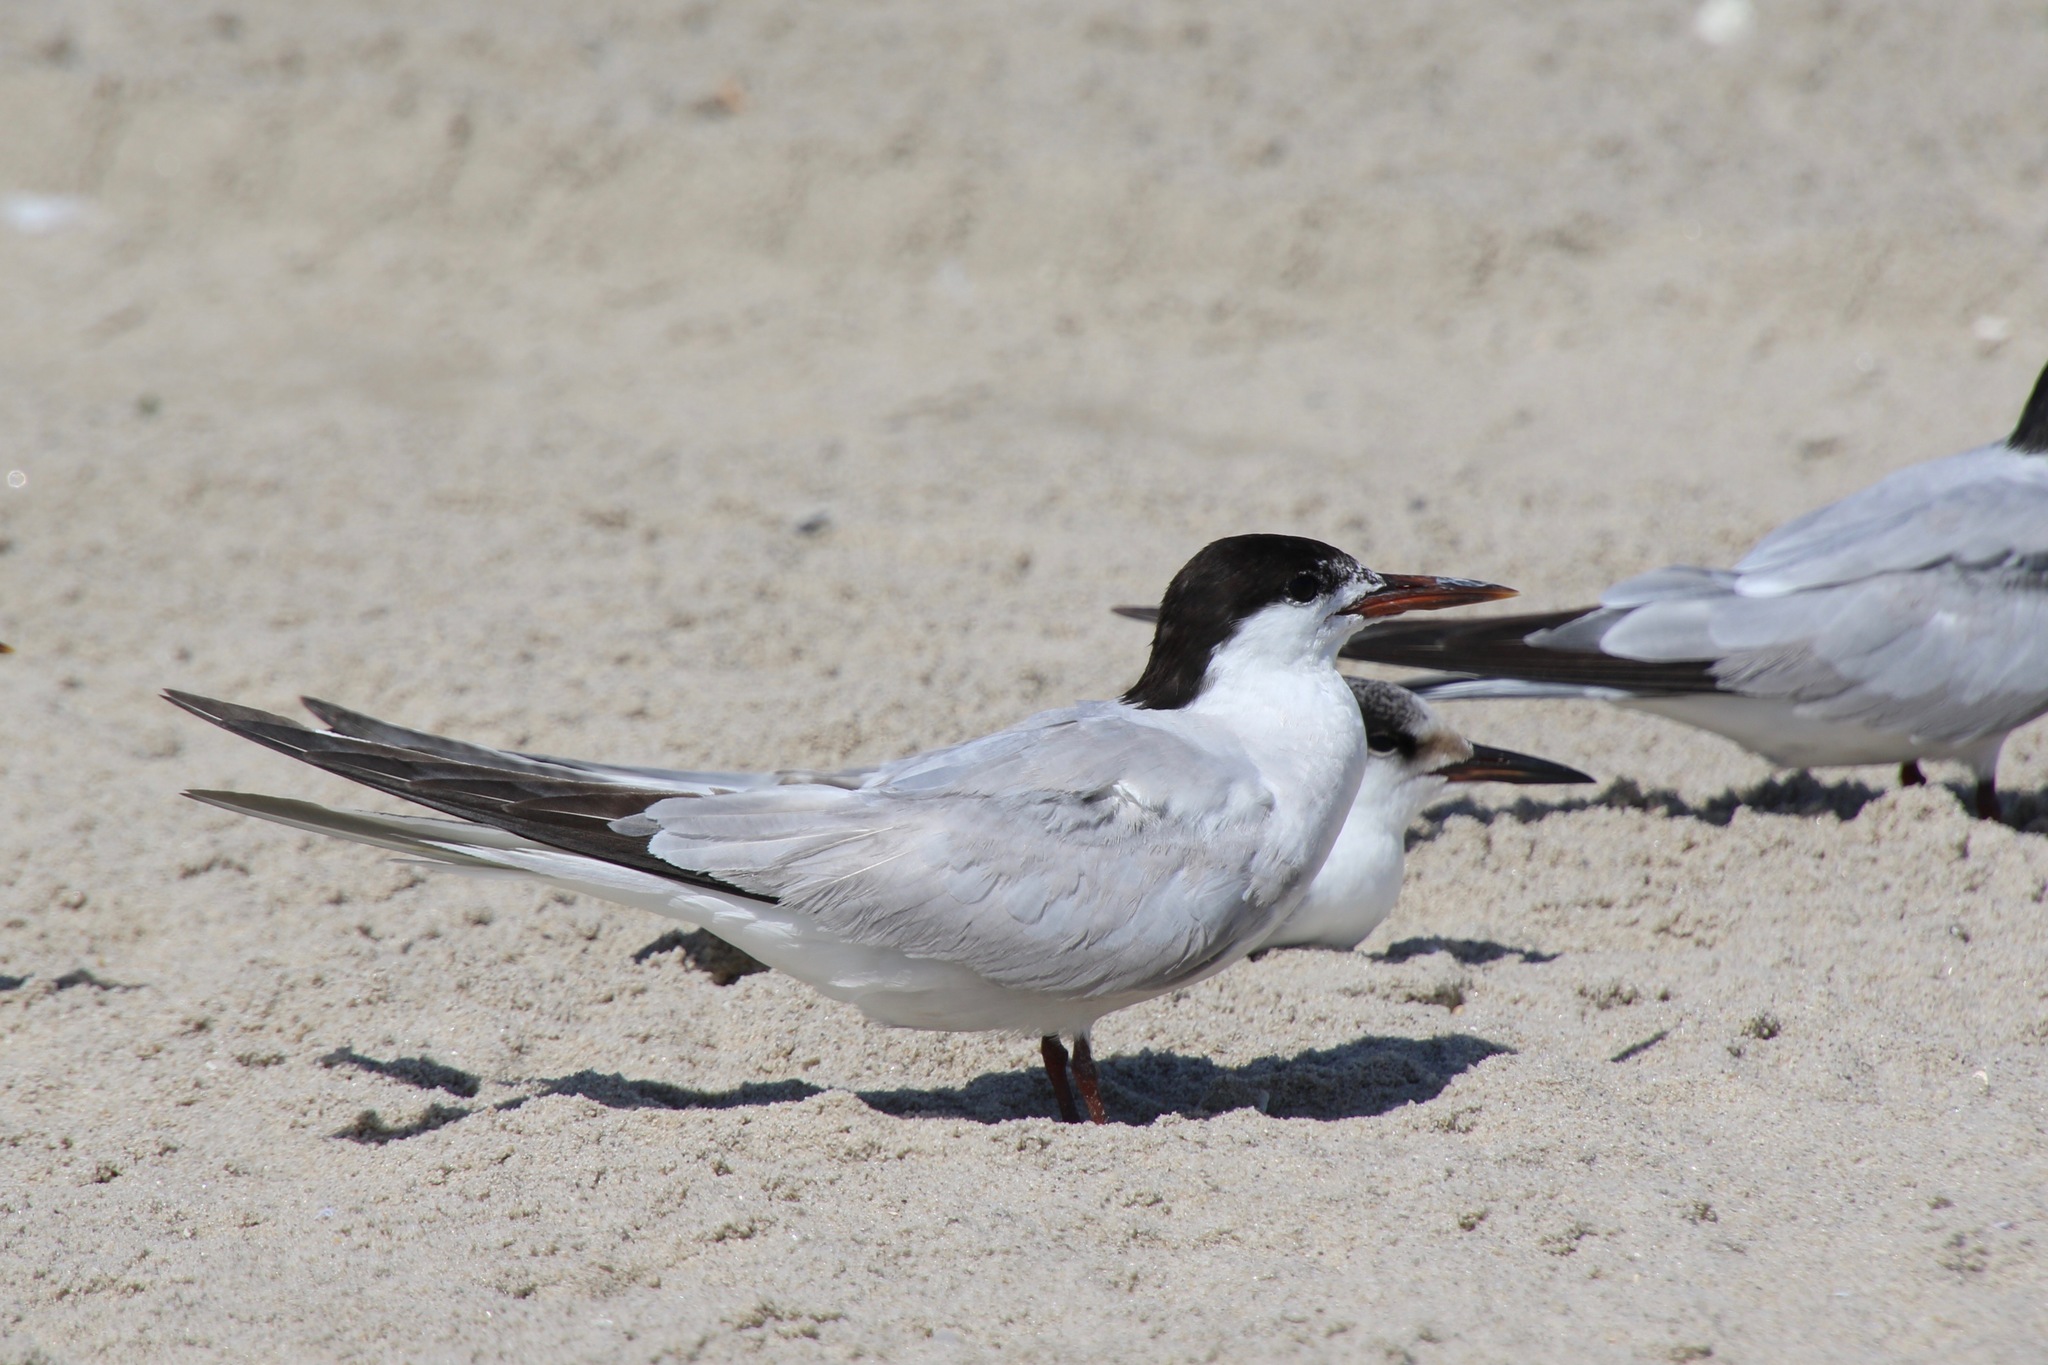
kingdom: Animalia
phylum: Chordata
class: Aves
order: Charadriiformes
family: Laridae
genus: Sterna
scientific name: Sterna hirundo
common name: Common tern
